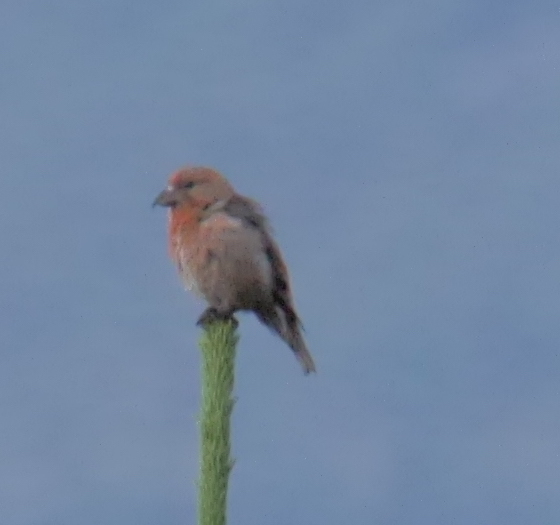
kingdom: Animalia
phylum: Chordata
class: Aves
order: Passeriformes
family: Fringillidae
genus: Loxia
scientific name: Loxia curvirostra
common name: Red crossbill
